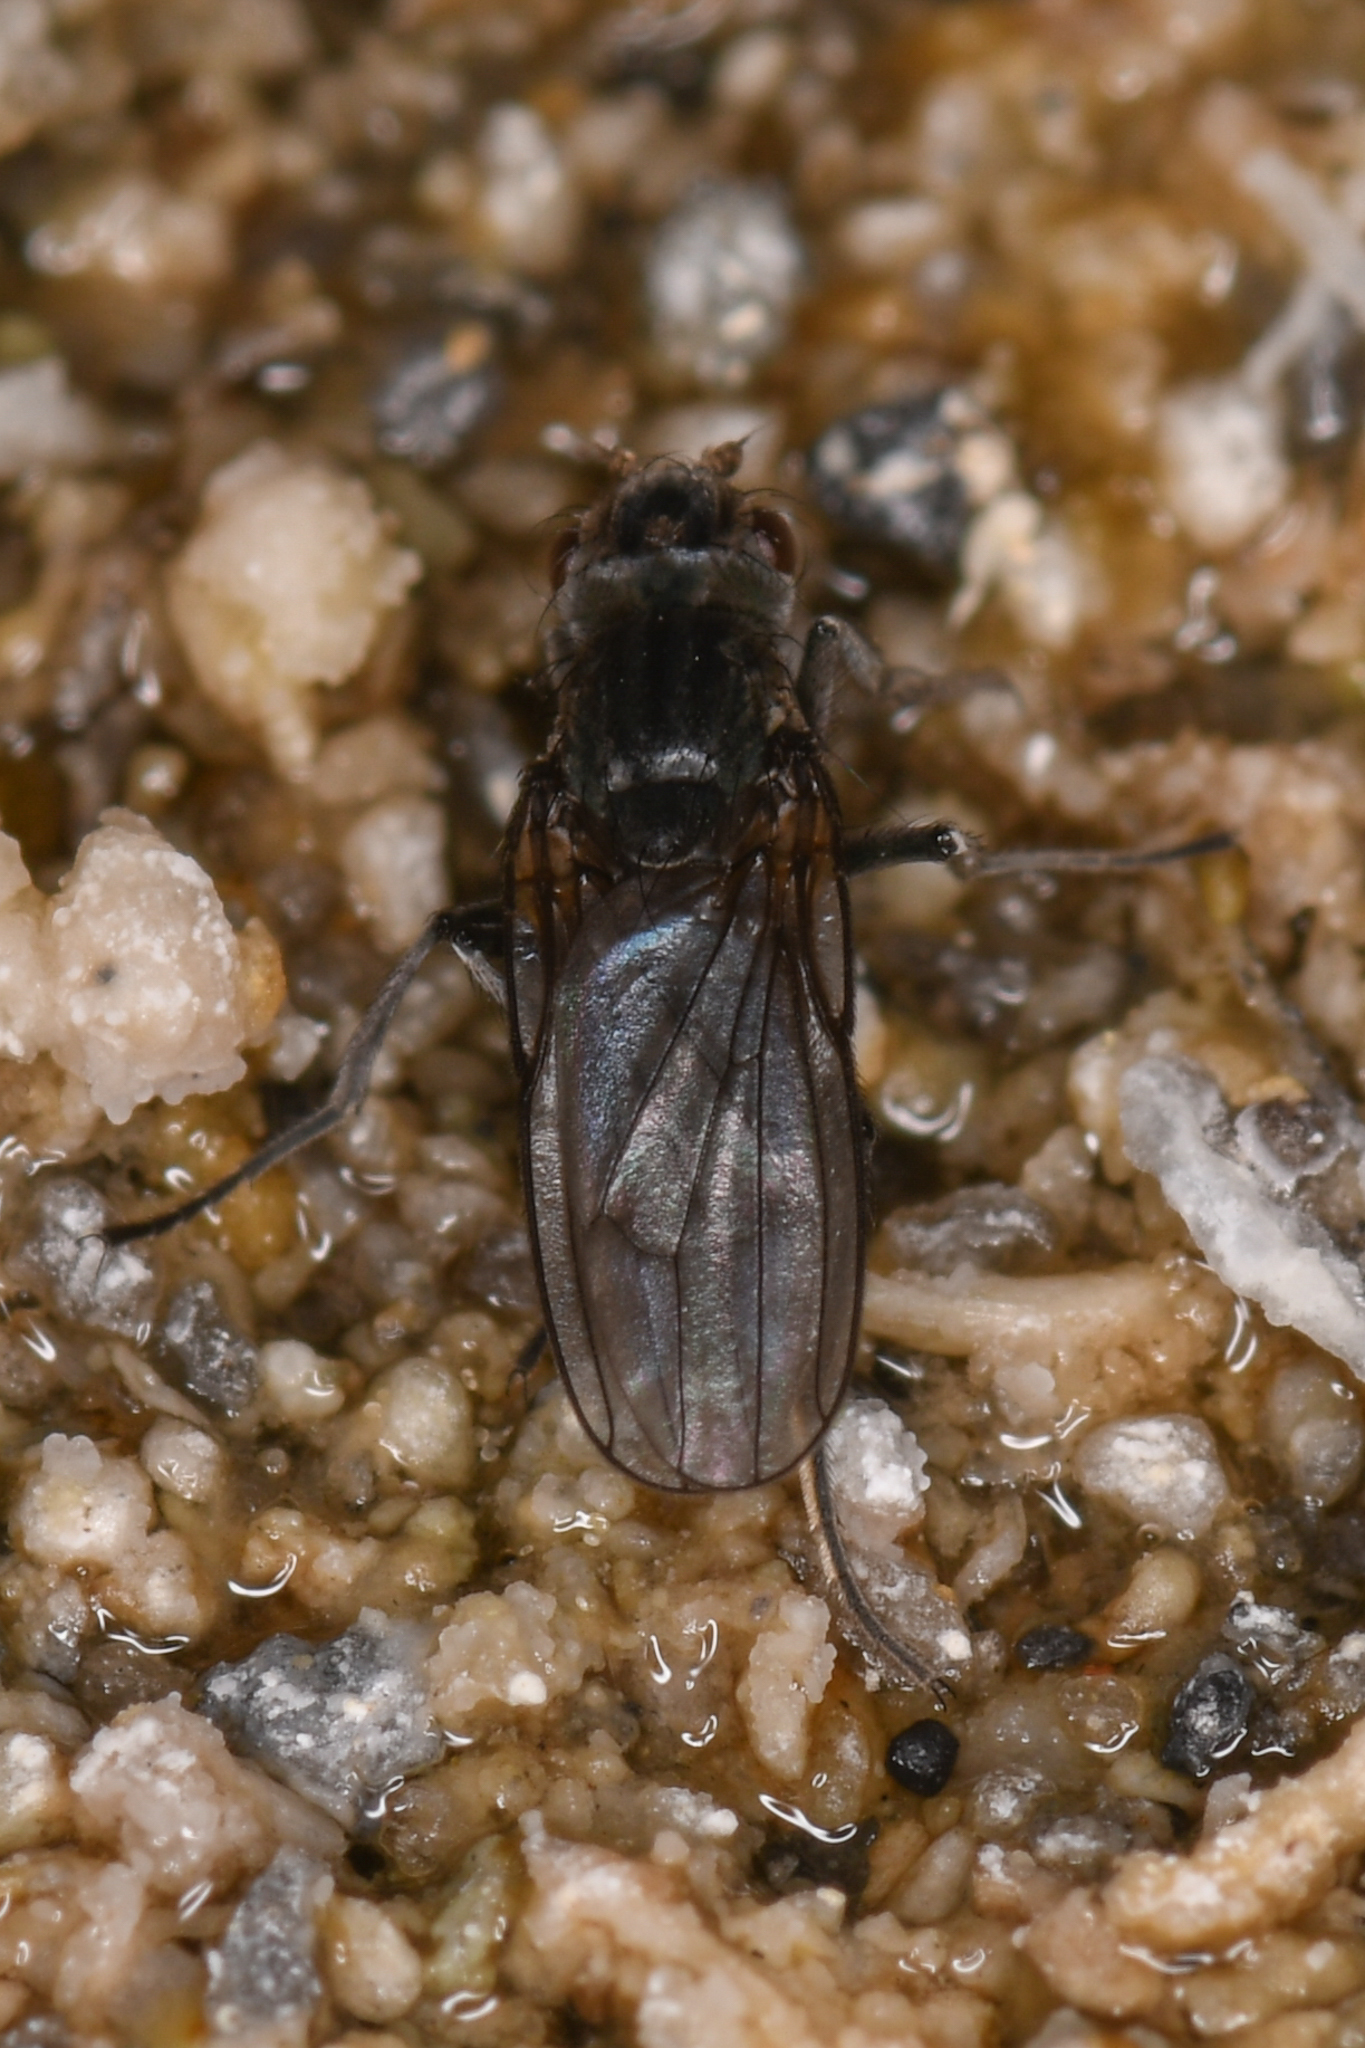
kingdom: Animalia
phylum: Arthropoda
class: Insecta
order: Diptera
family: Ephydridae
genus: Cirrula
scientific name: Cirrula hians
